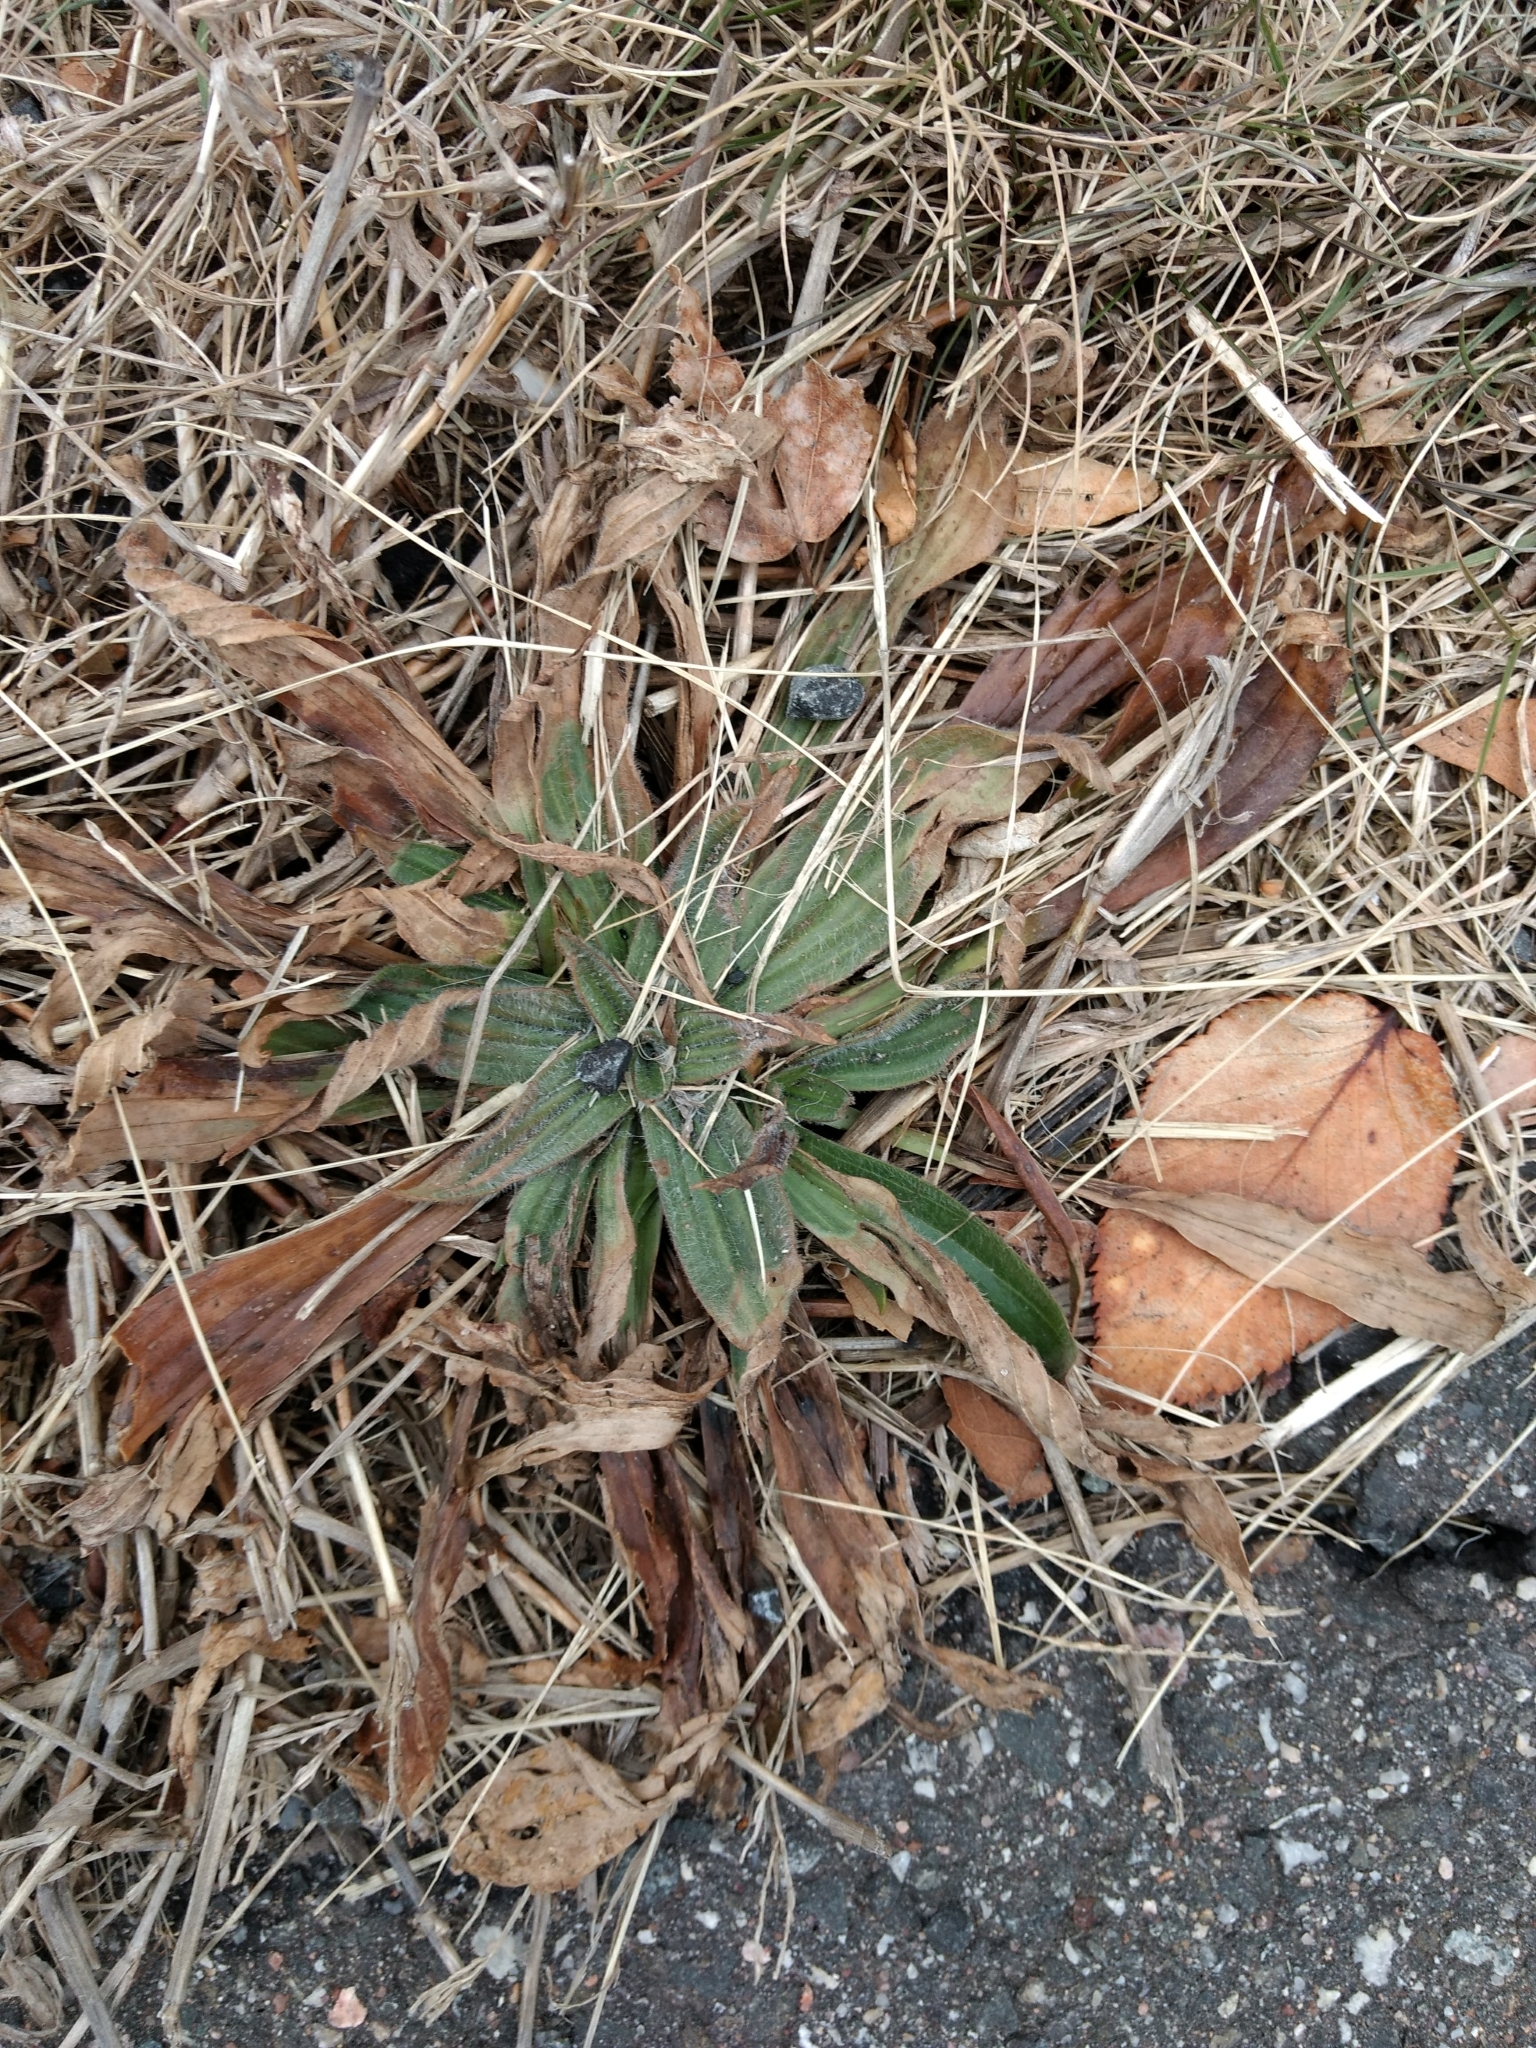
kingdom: Plantae
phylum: Tracheophyta
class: Magnoliopsida
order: Lamiales
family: Plantaginaceae
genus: Plantago
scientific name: Plantago lanceolata
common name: Ribwort plantain
